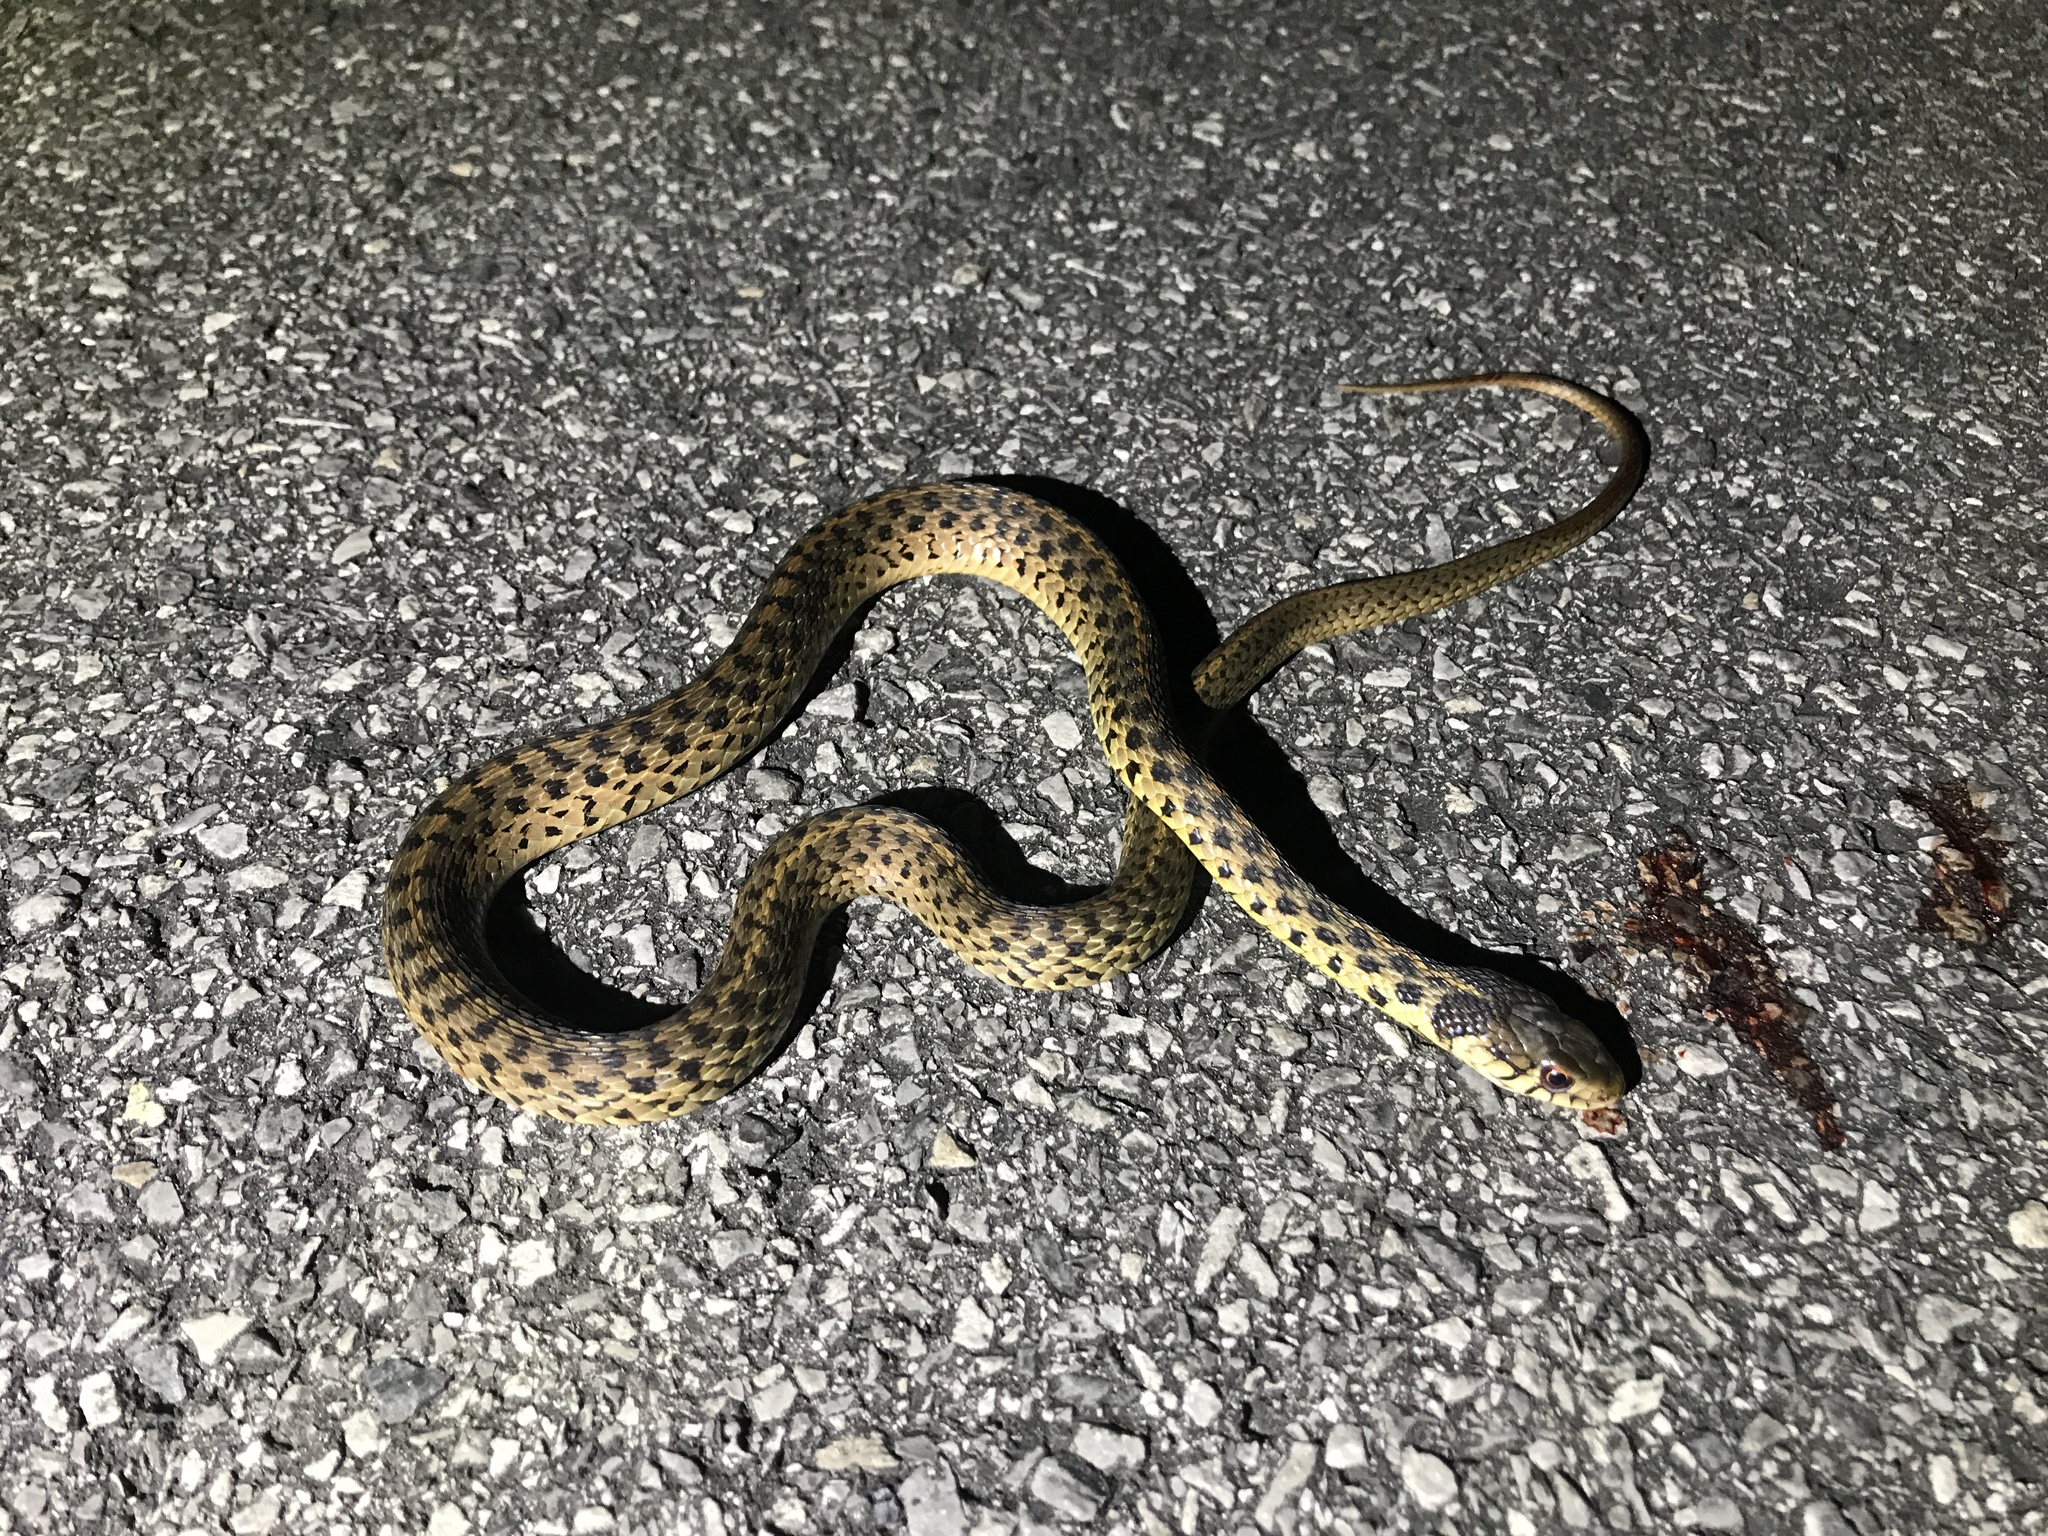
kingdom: Animalia
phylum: Chordata
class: Squamata
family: Colubridae
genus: Thamnophis
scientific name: Thamnophis sirtalis
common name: Common garter snake
